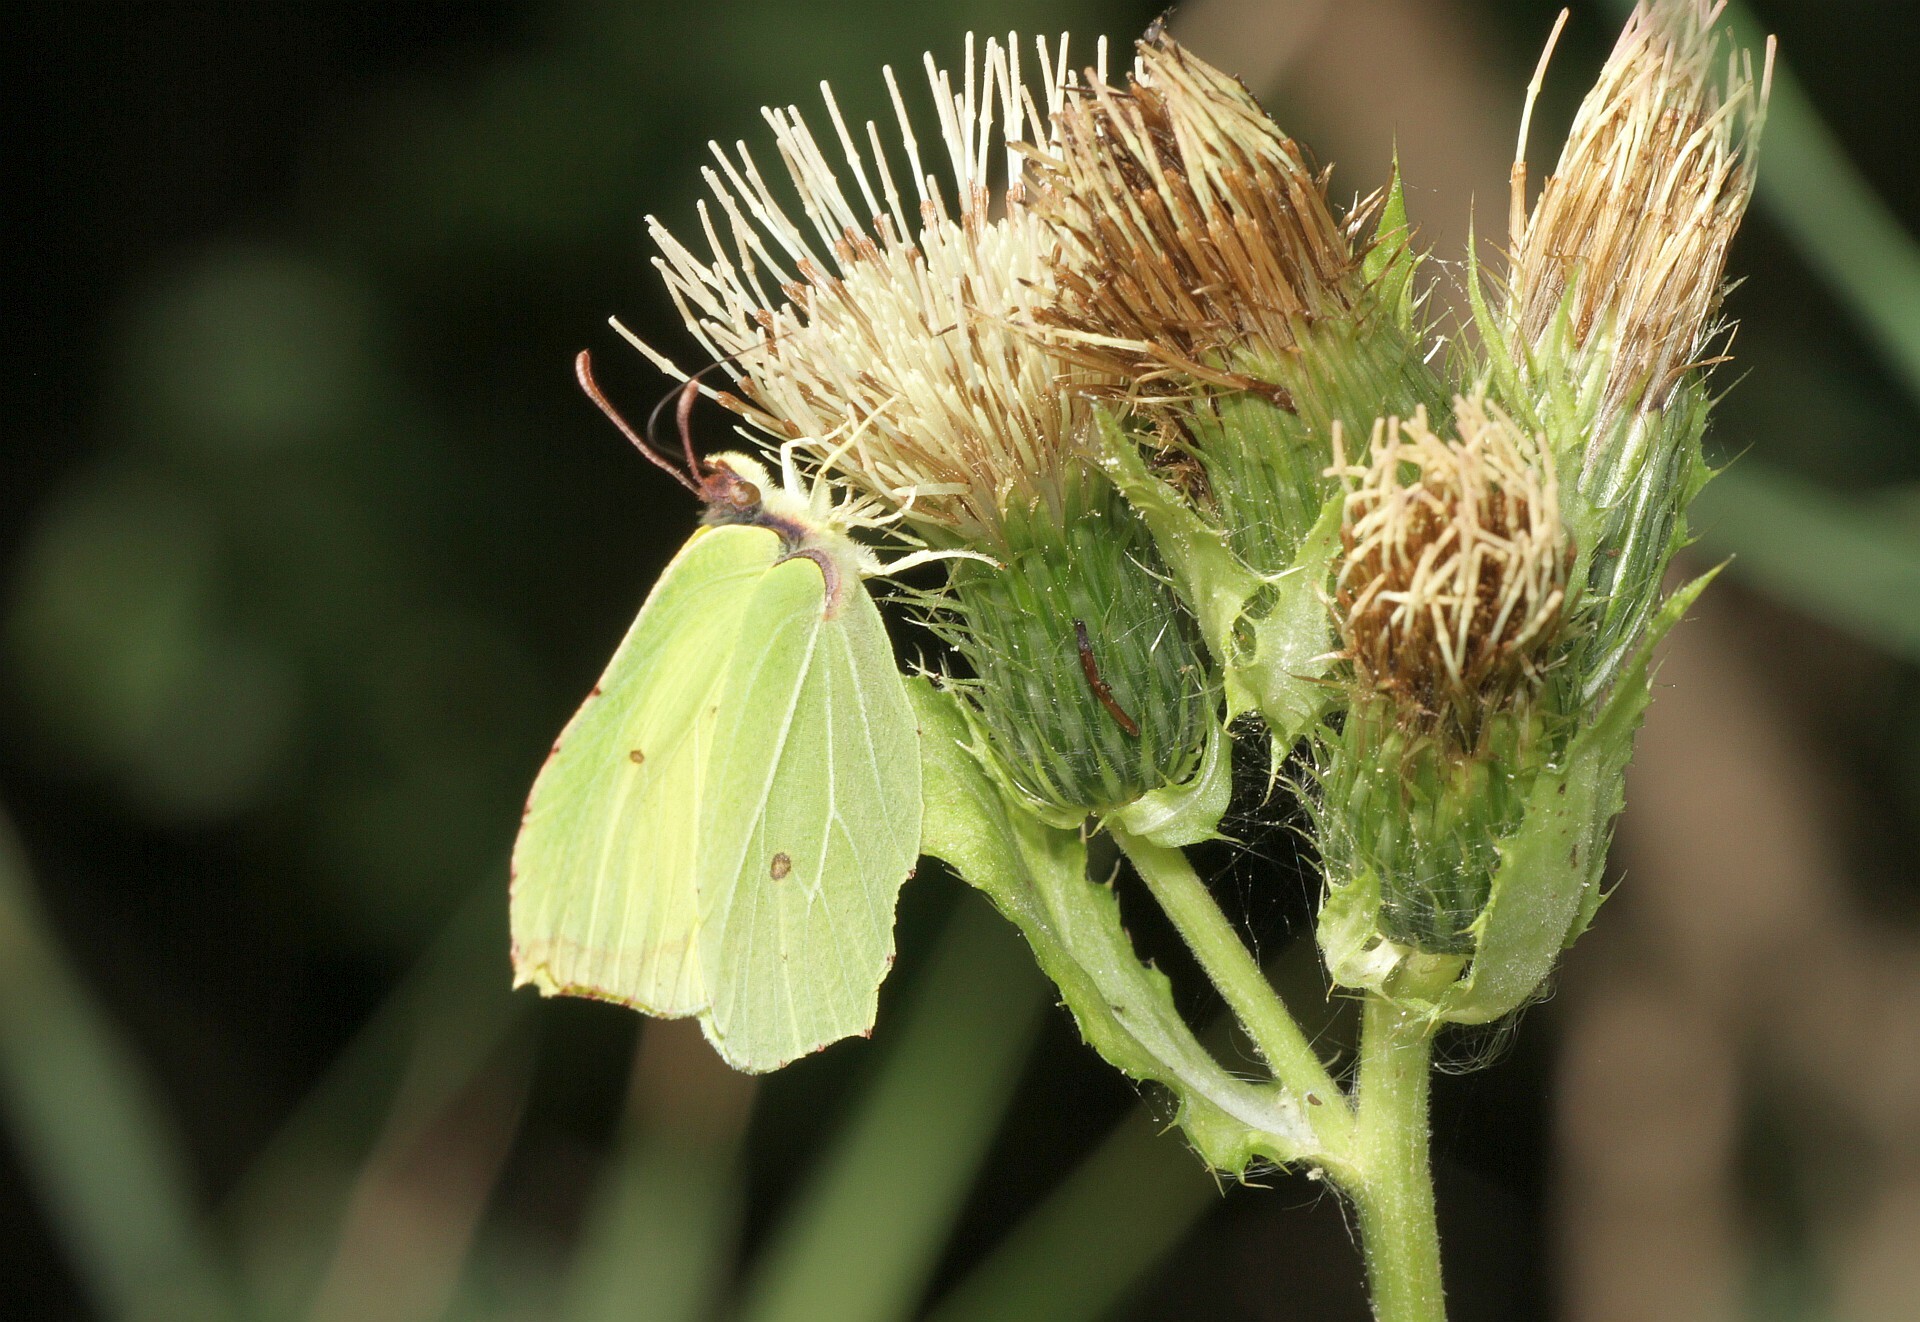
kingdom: Animalia
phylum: Arthropoda
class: Insecta
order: Lepidoptera
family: Pieridae
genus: Gonepteryx
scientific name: Gonepteryx rhamni
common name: Brimstone
